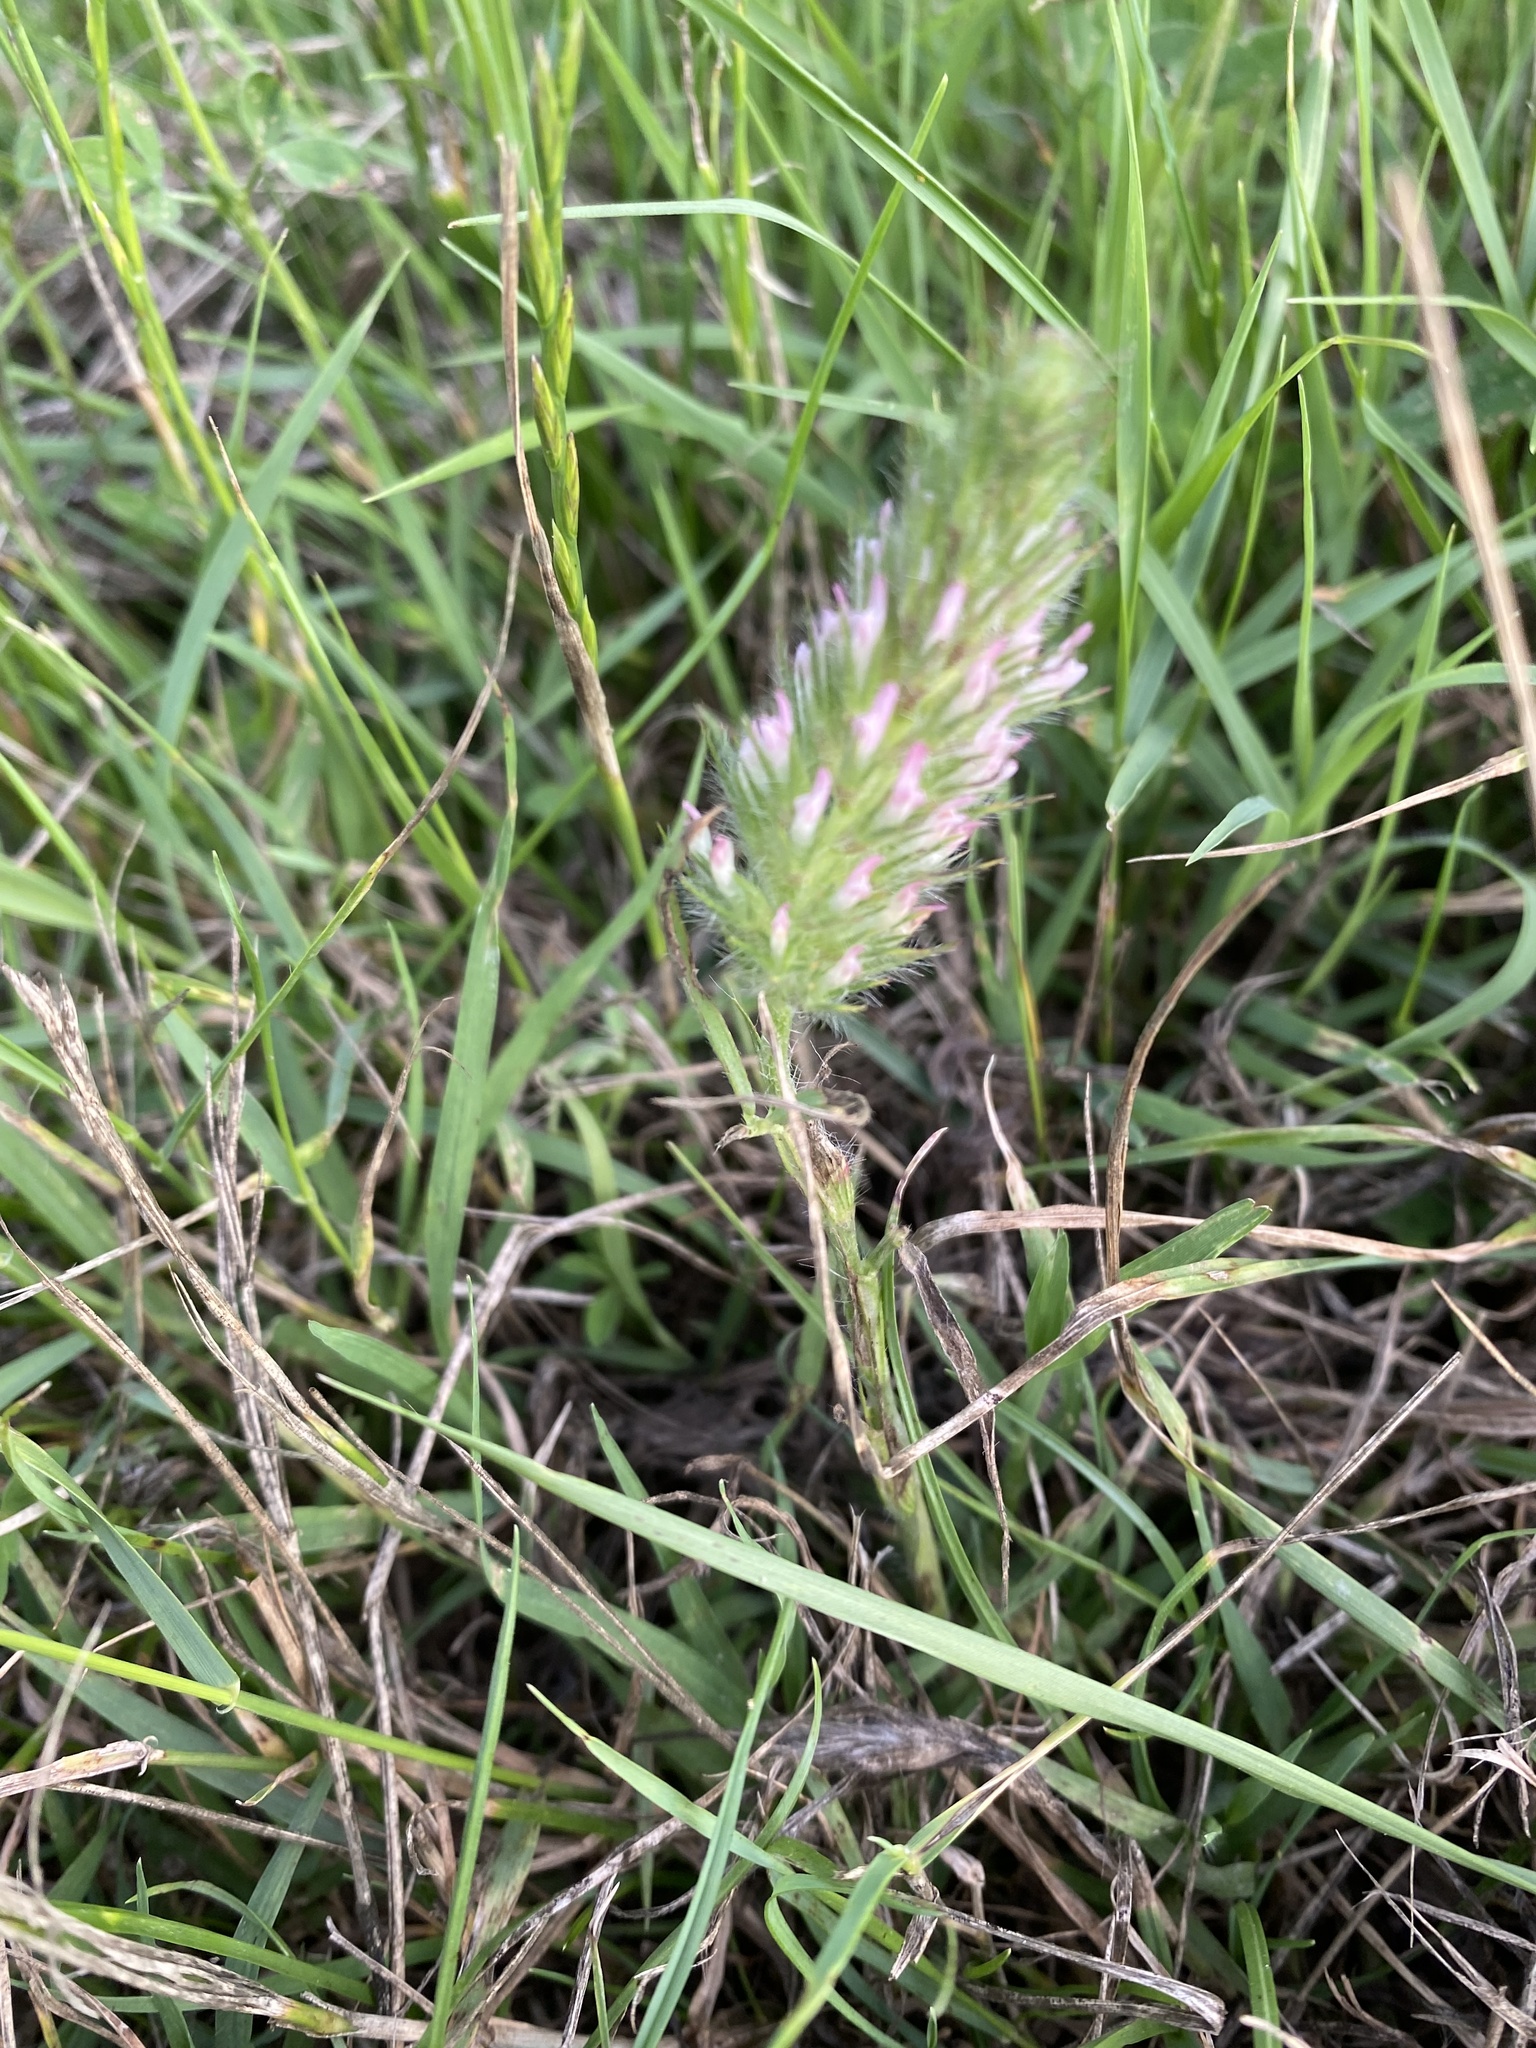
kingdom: Plantae
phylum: Tracheophyta
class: Magnoliopsida
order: Fabales
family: Fabaceae
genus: Trifolium
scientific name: Trifolium angustifolium
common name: Narrow clover
